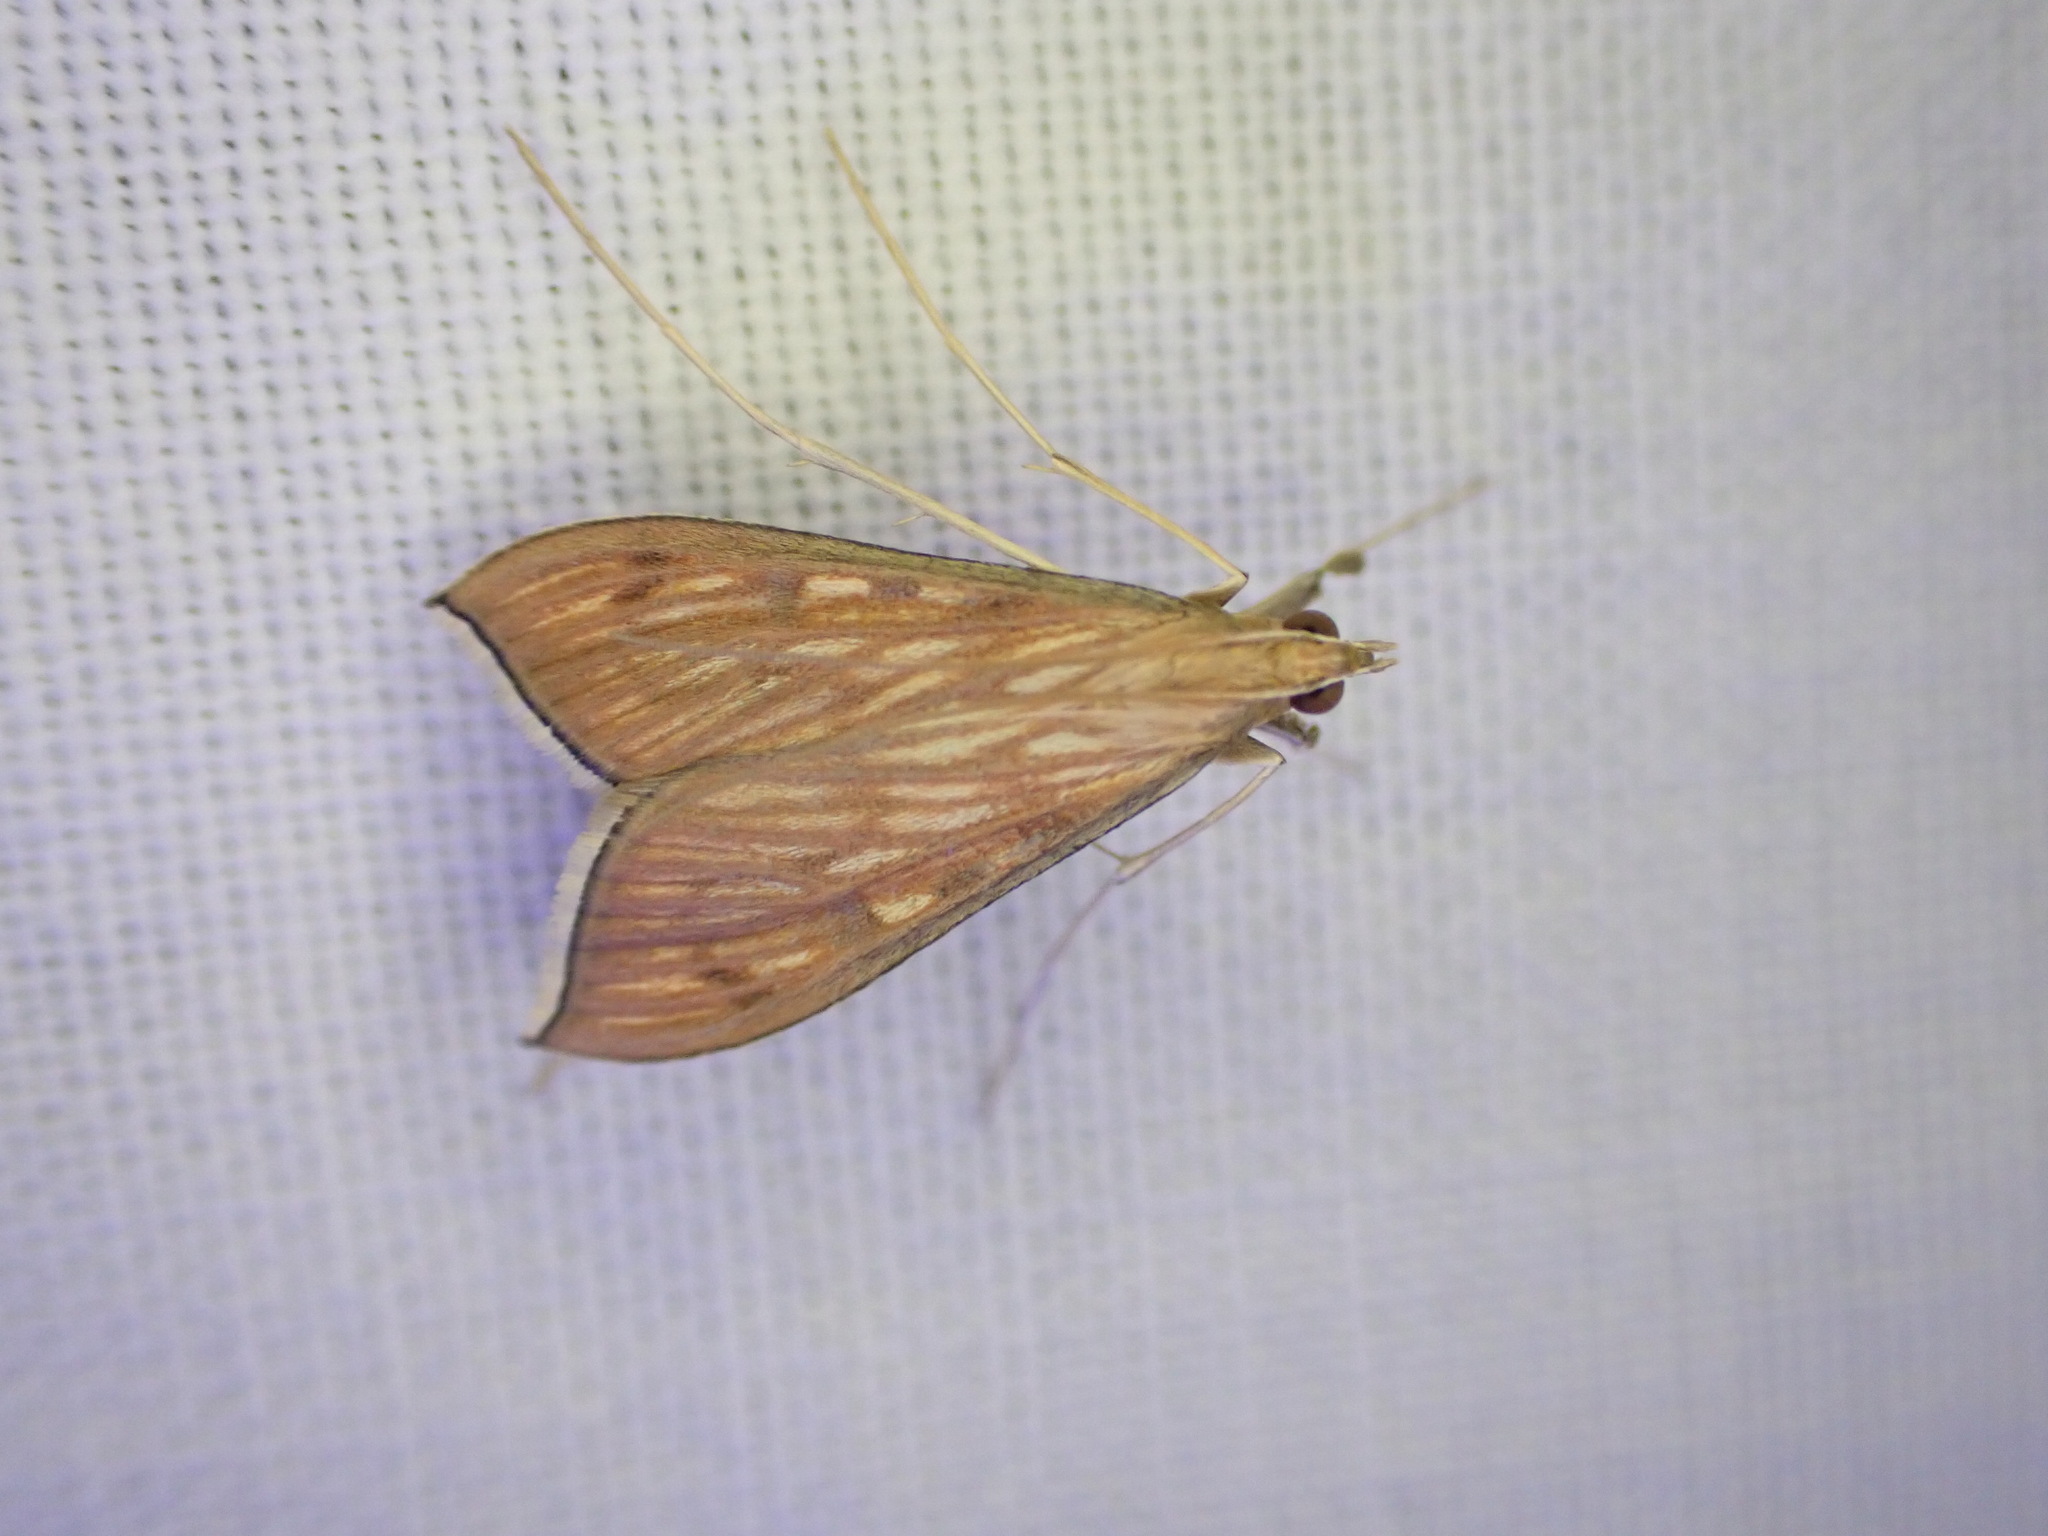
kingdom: Animalia
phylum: Arthropoda
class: Insecta
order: Lepidoptera
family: Crambidae
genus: Antigastra
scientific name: Antigastra catalaunalis
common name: Spanish dot
